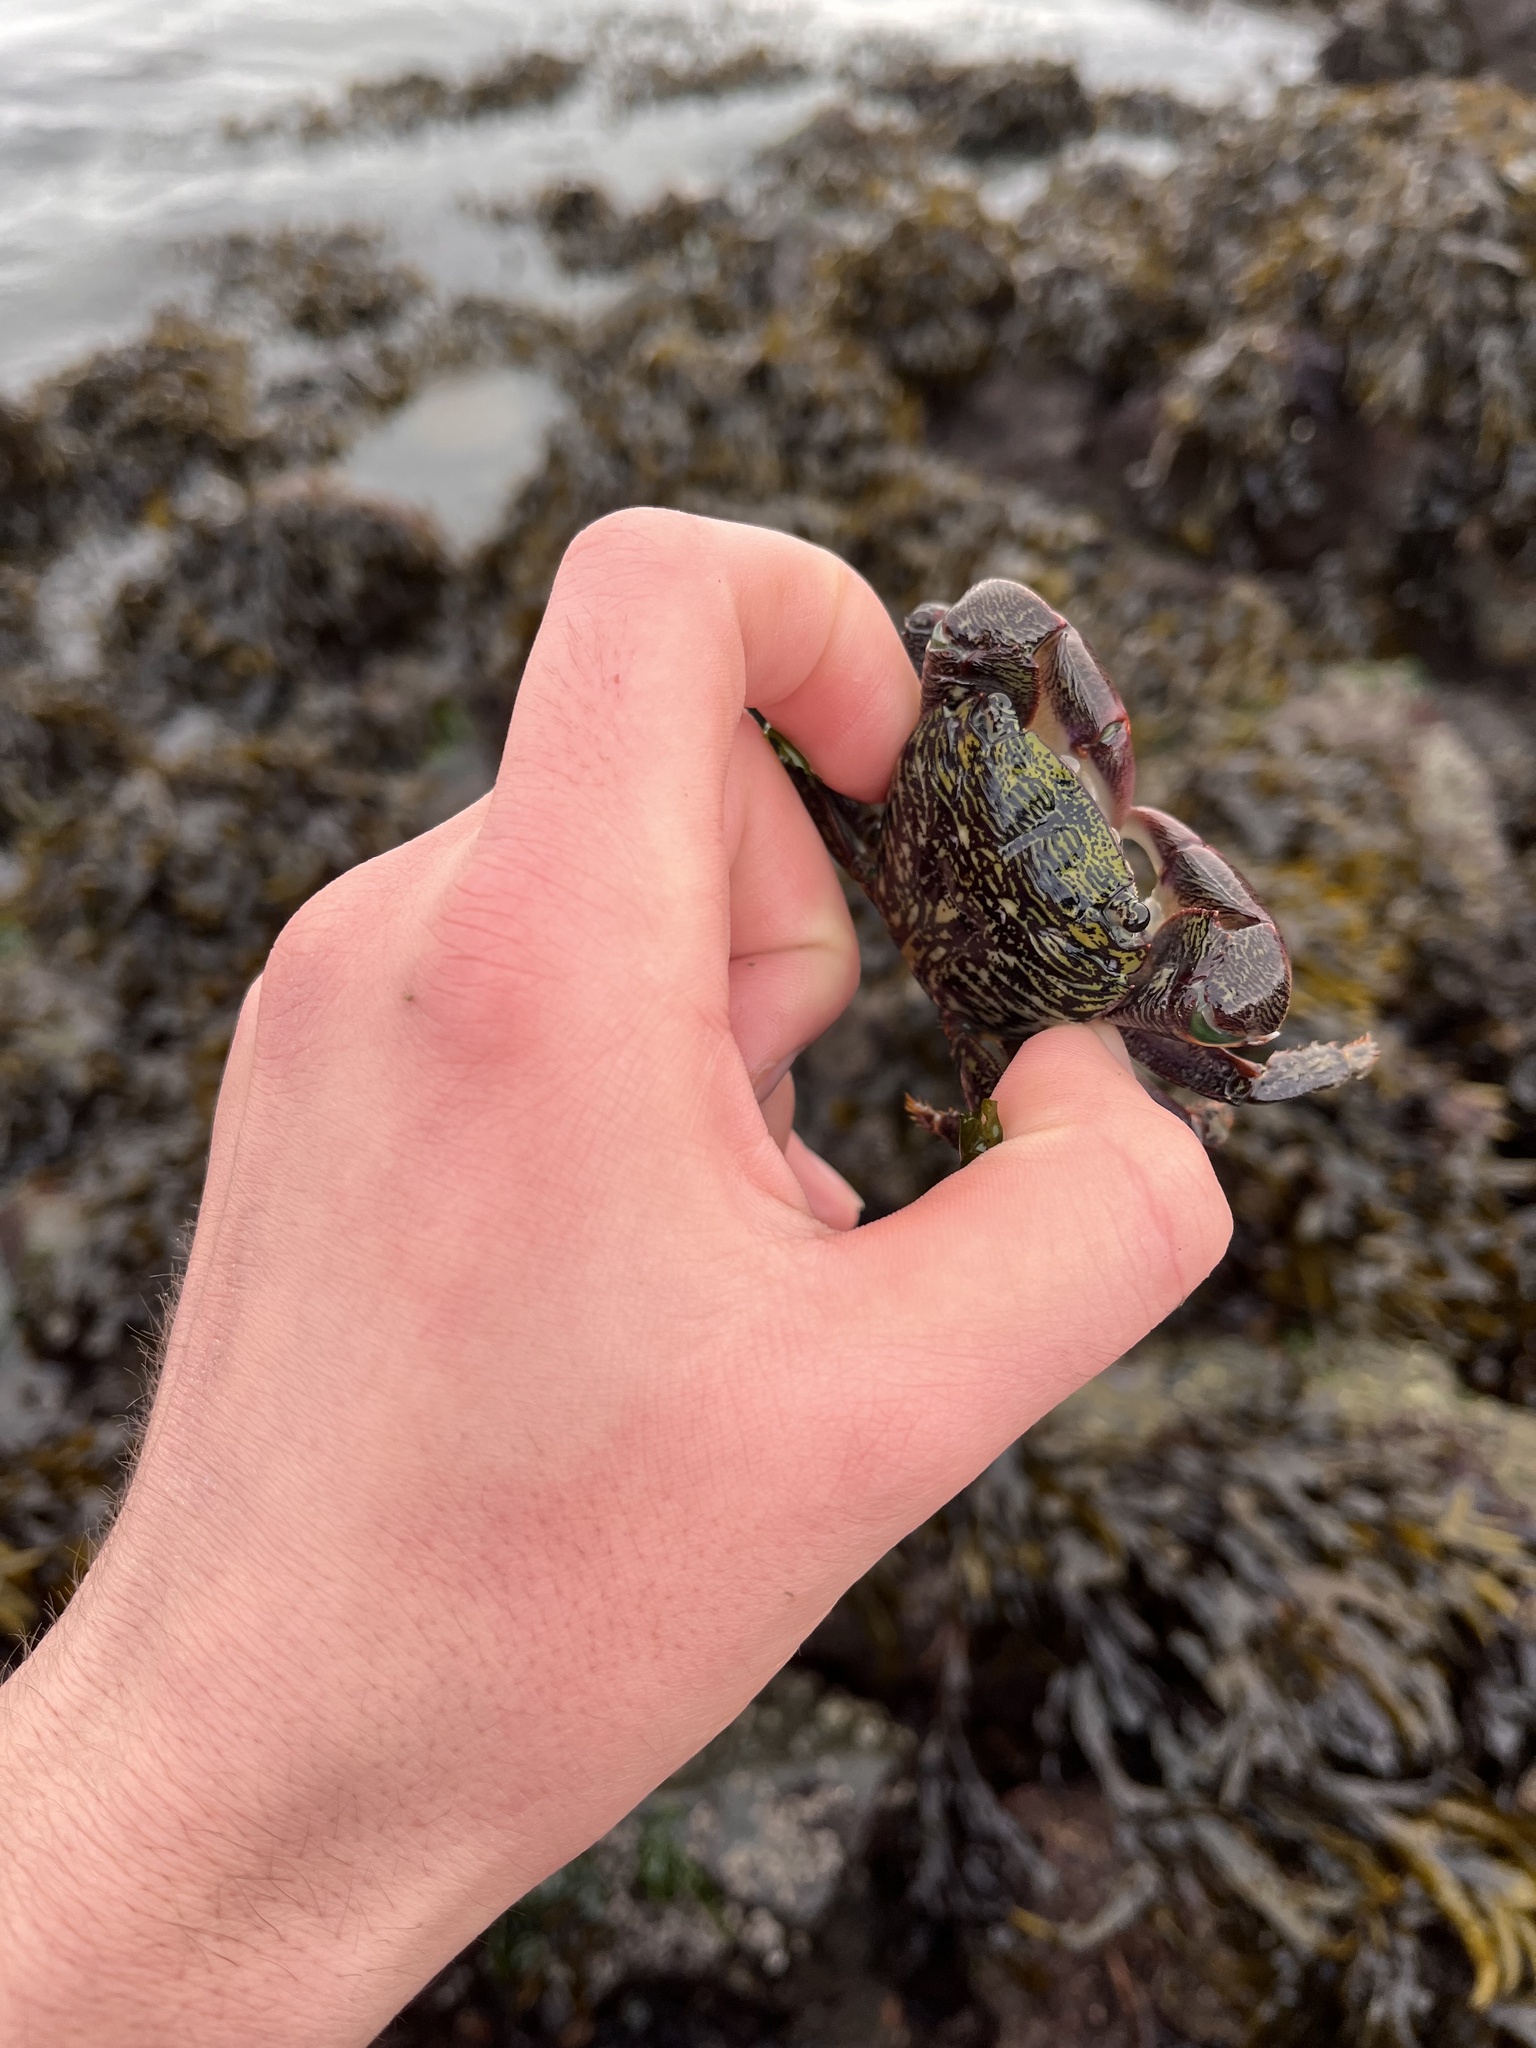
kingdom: Animalia
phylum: Arthropoda
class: Malacostraca
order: Decapoda
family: Grapsidae
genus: Pachygrapsus
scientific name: Pachygrapsus crassipes
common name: Striped shore crab
